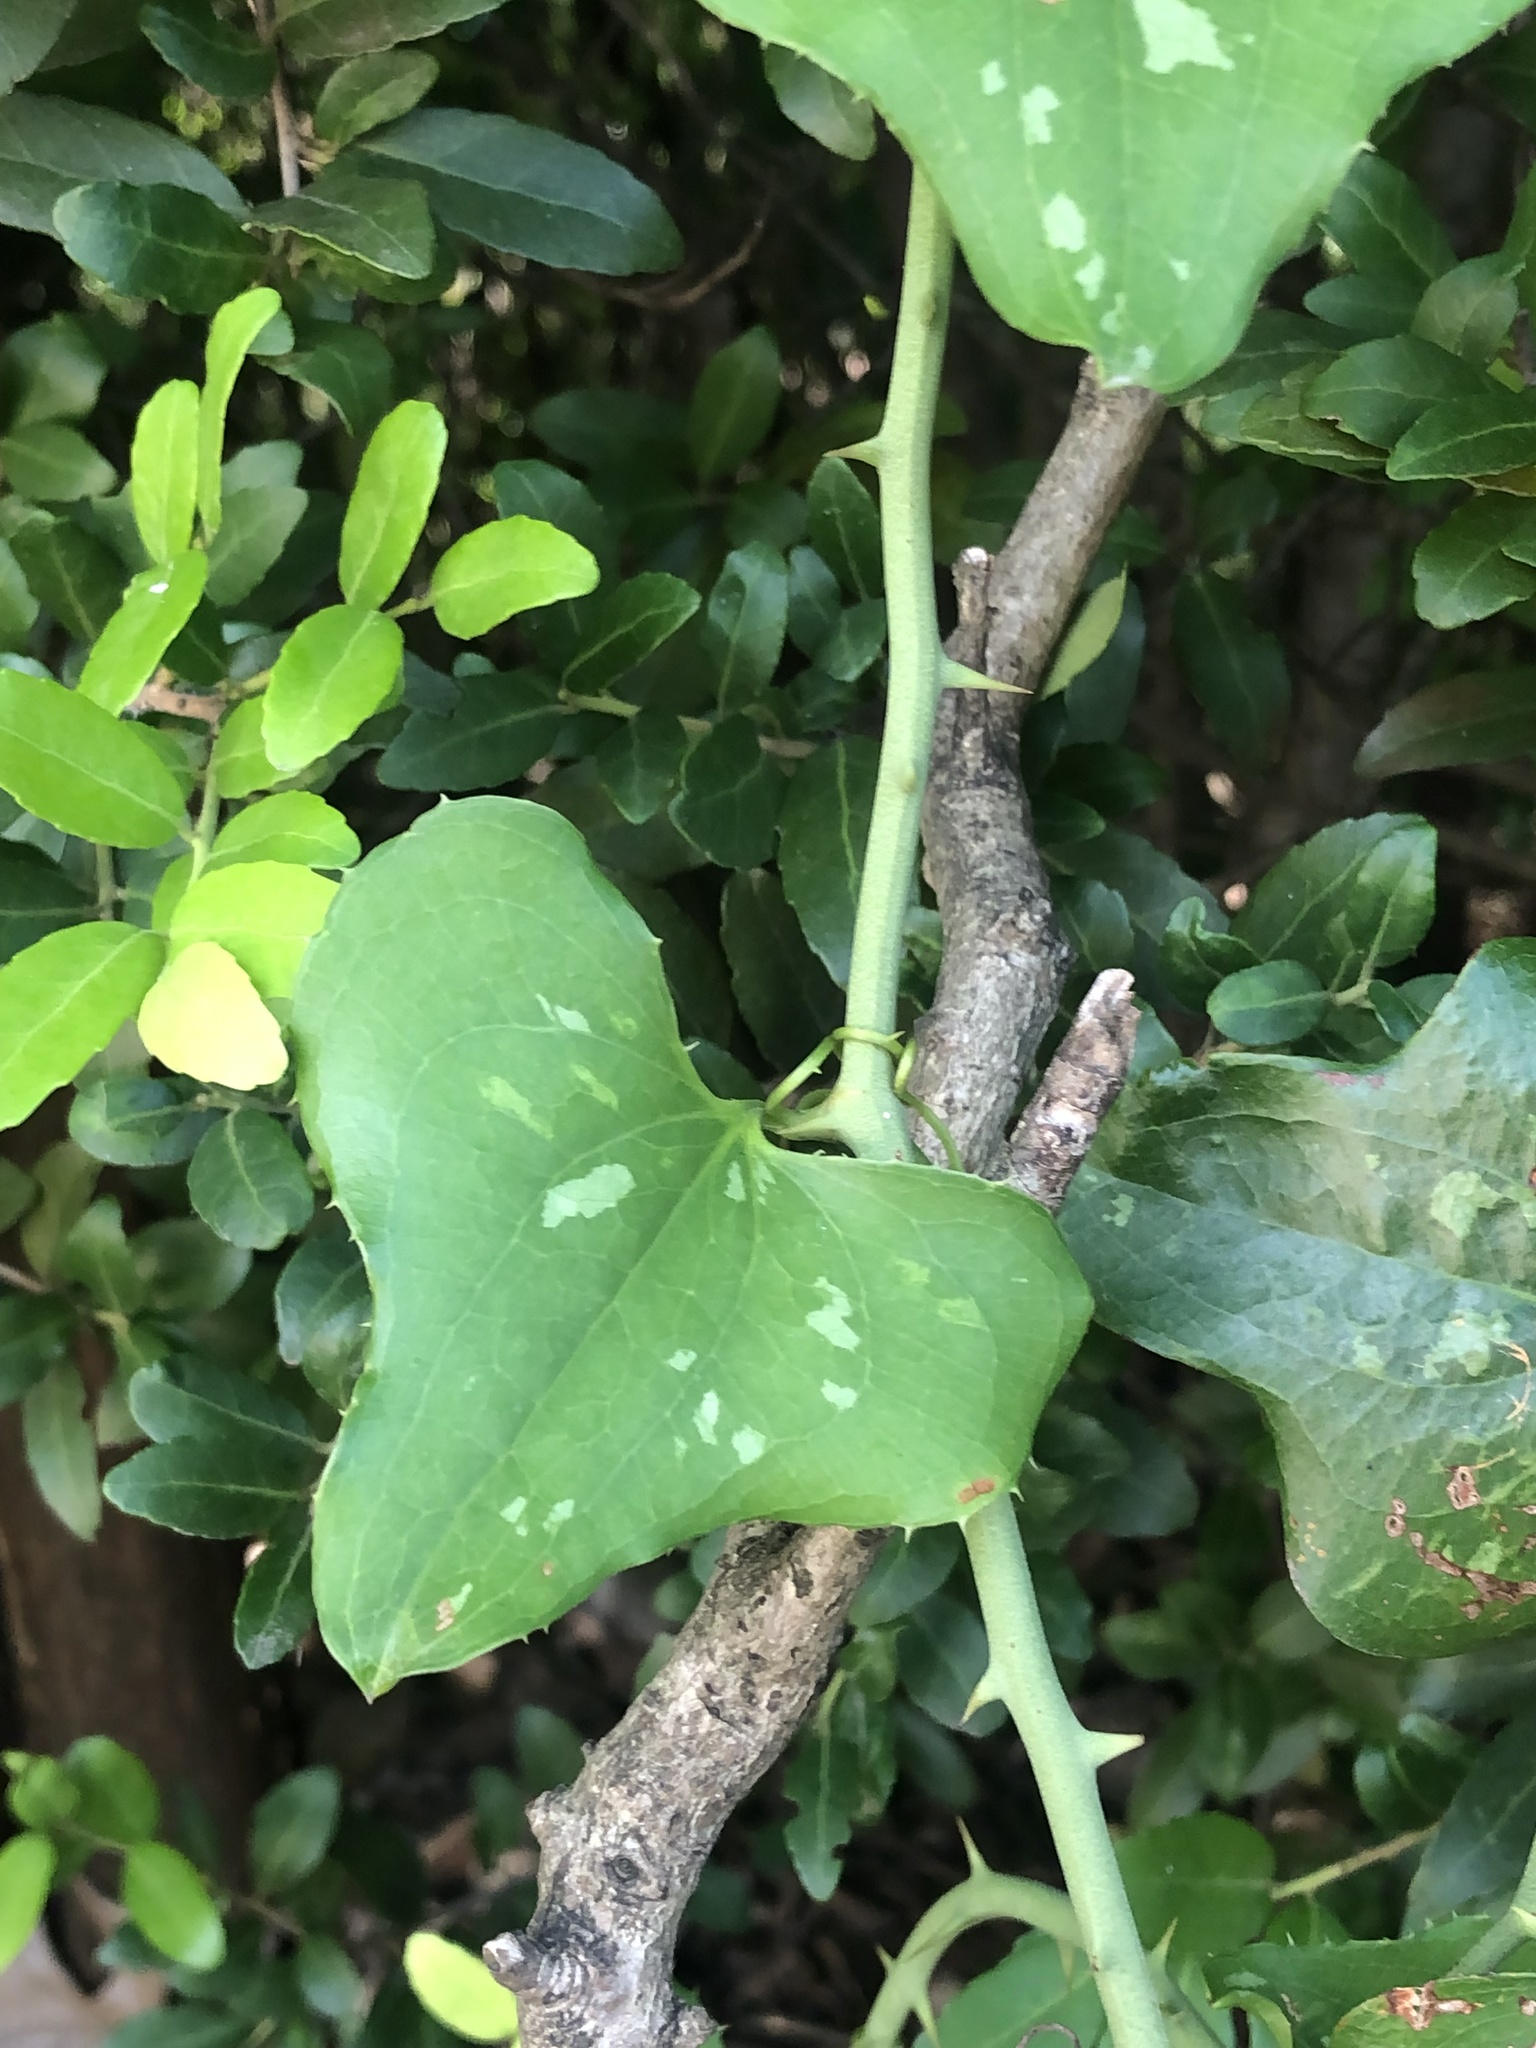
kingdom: Plantae
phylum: Tracheophyta
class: Liliopsida
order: Liliales
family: Smilacaceae
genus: Smilax
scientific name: Smilax bona-nox
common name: Catbrier
